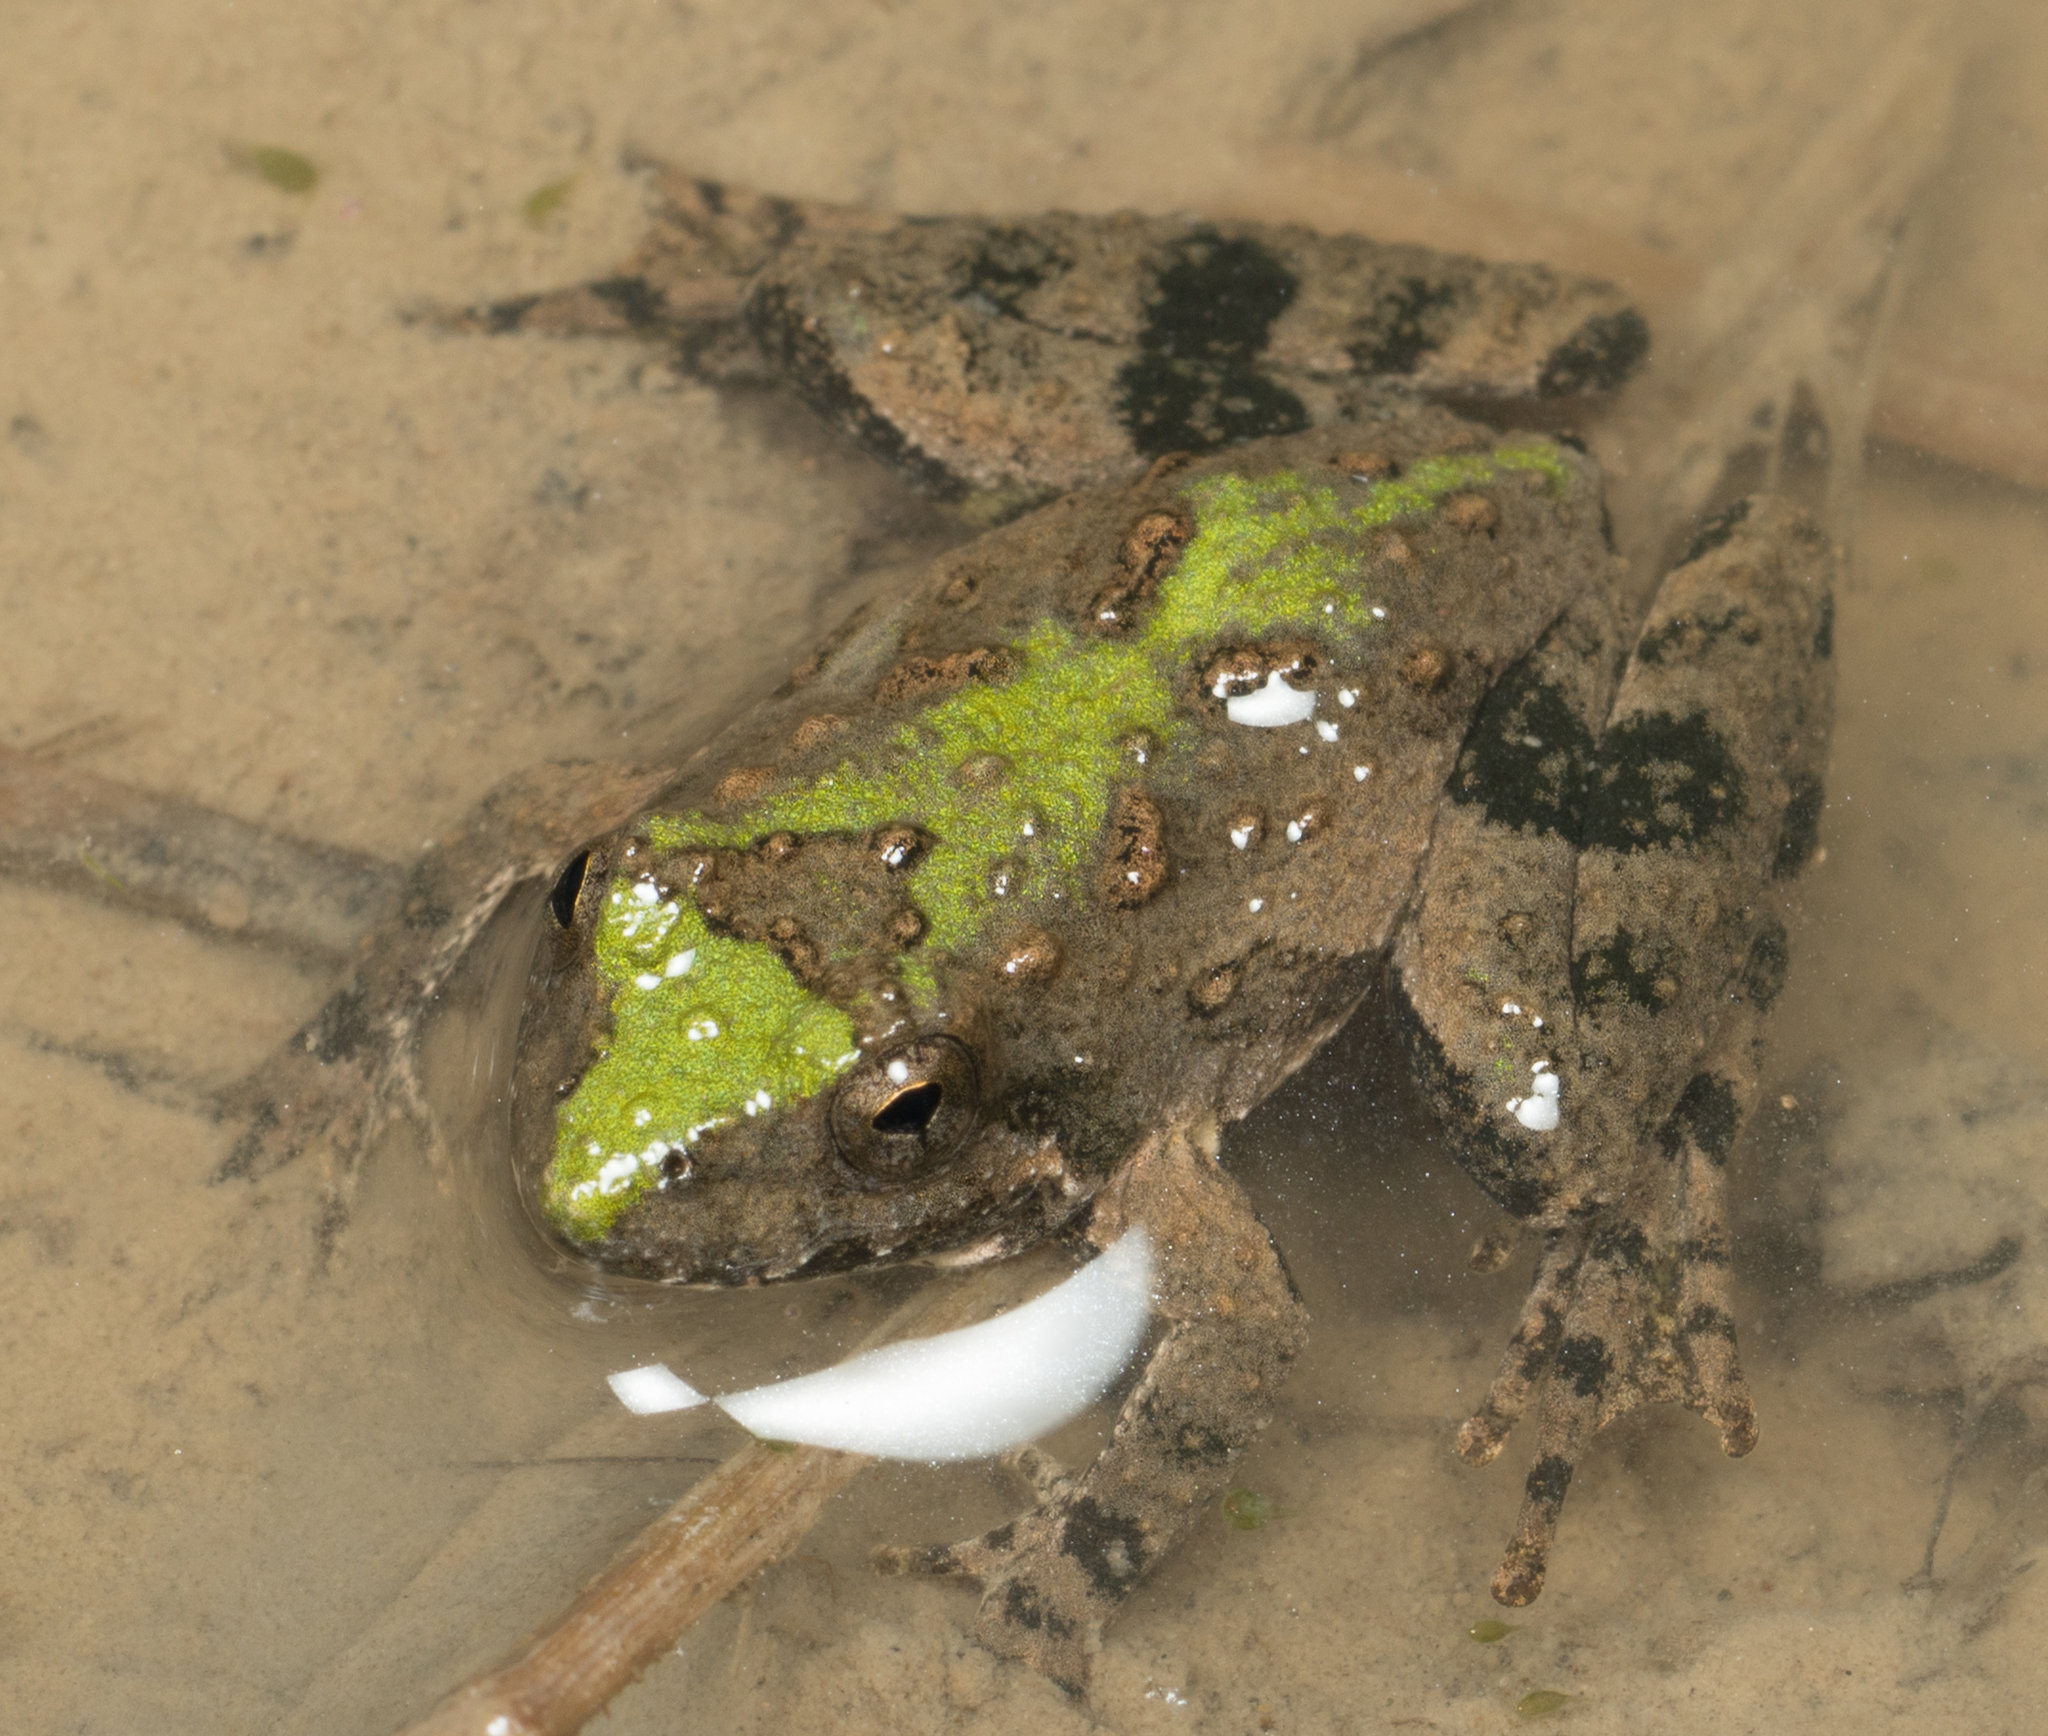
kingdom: Animalia
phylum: Chordata
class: Amphibia
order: Anura
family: Hylidae
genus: Acris
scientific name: Acris blanchardi
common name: Blanchard's cricket frog
